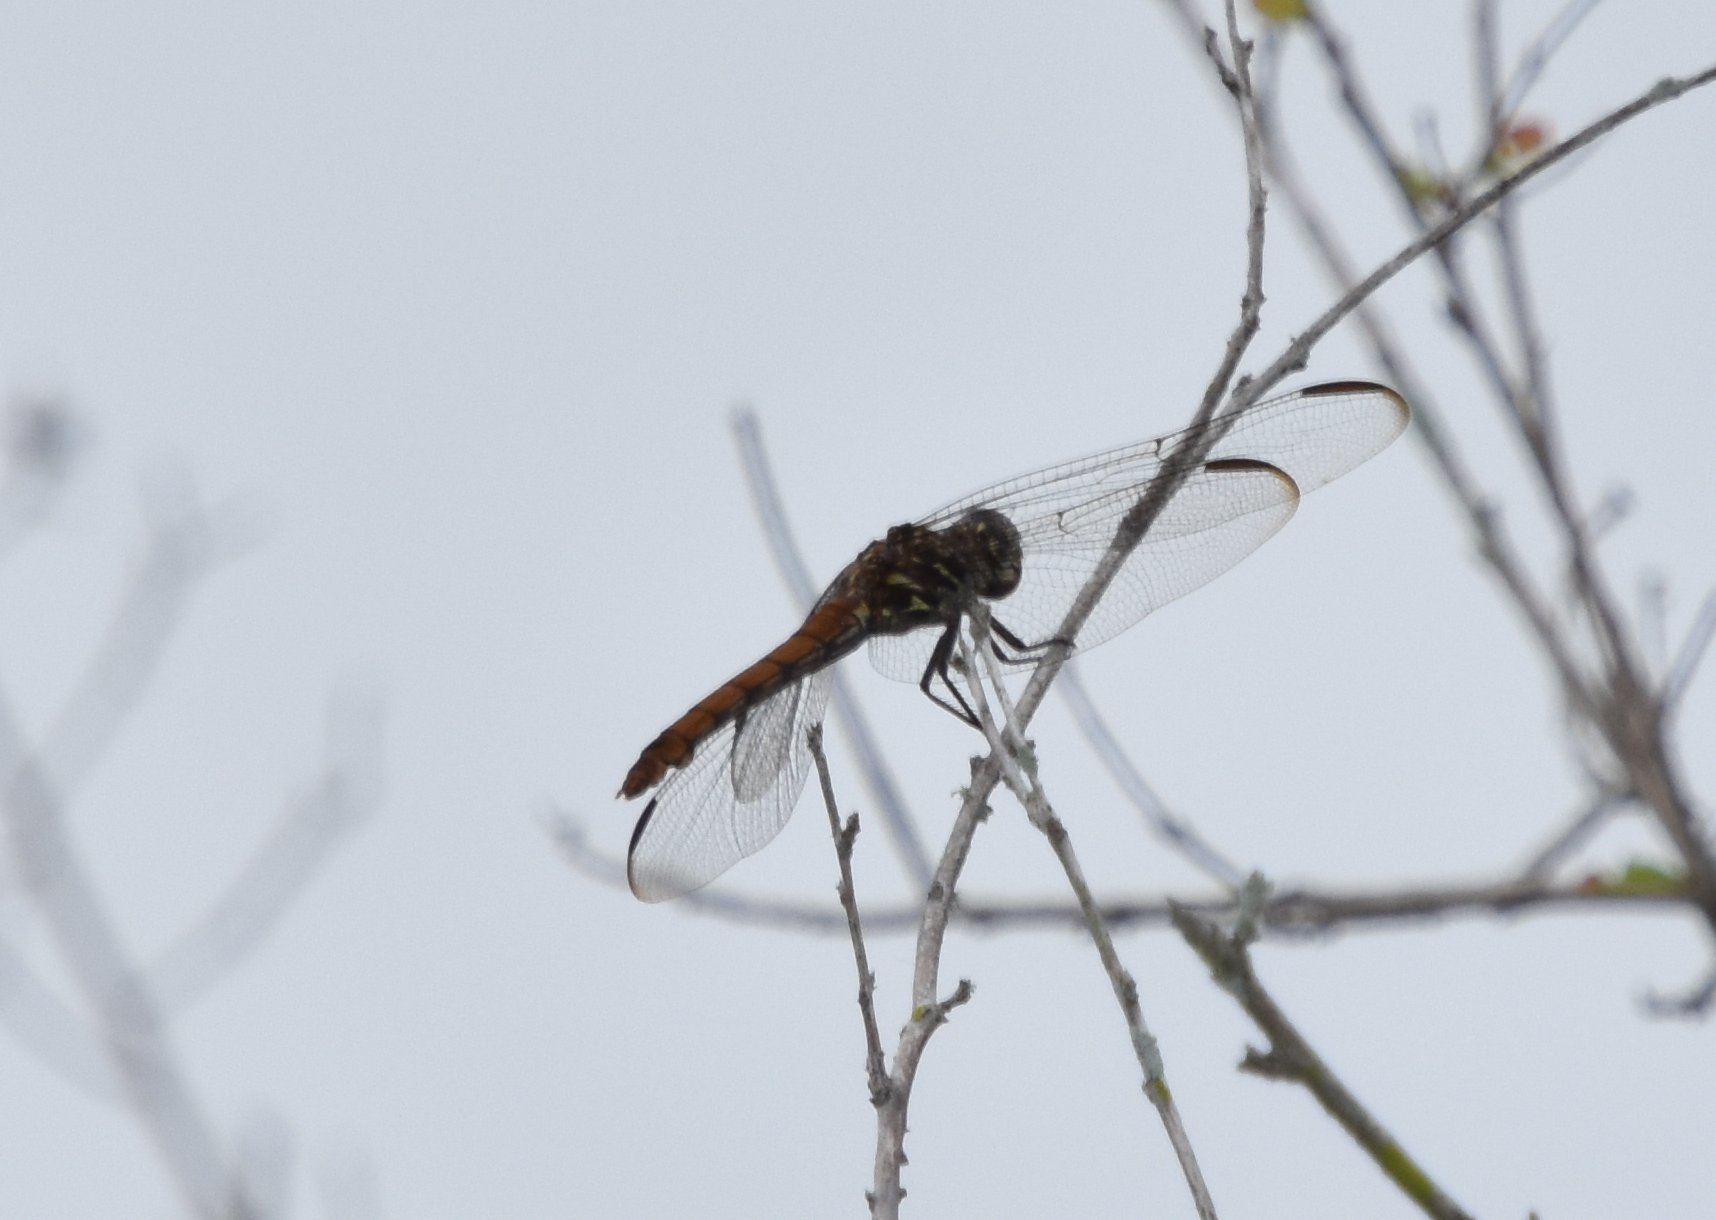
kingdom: Animalia
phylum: Arthropoda
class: Insecta
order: Odonata
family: Libellulidae
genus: Orthemis
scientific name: Orthemis ferruginea
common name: Roseate skimmer
